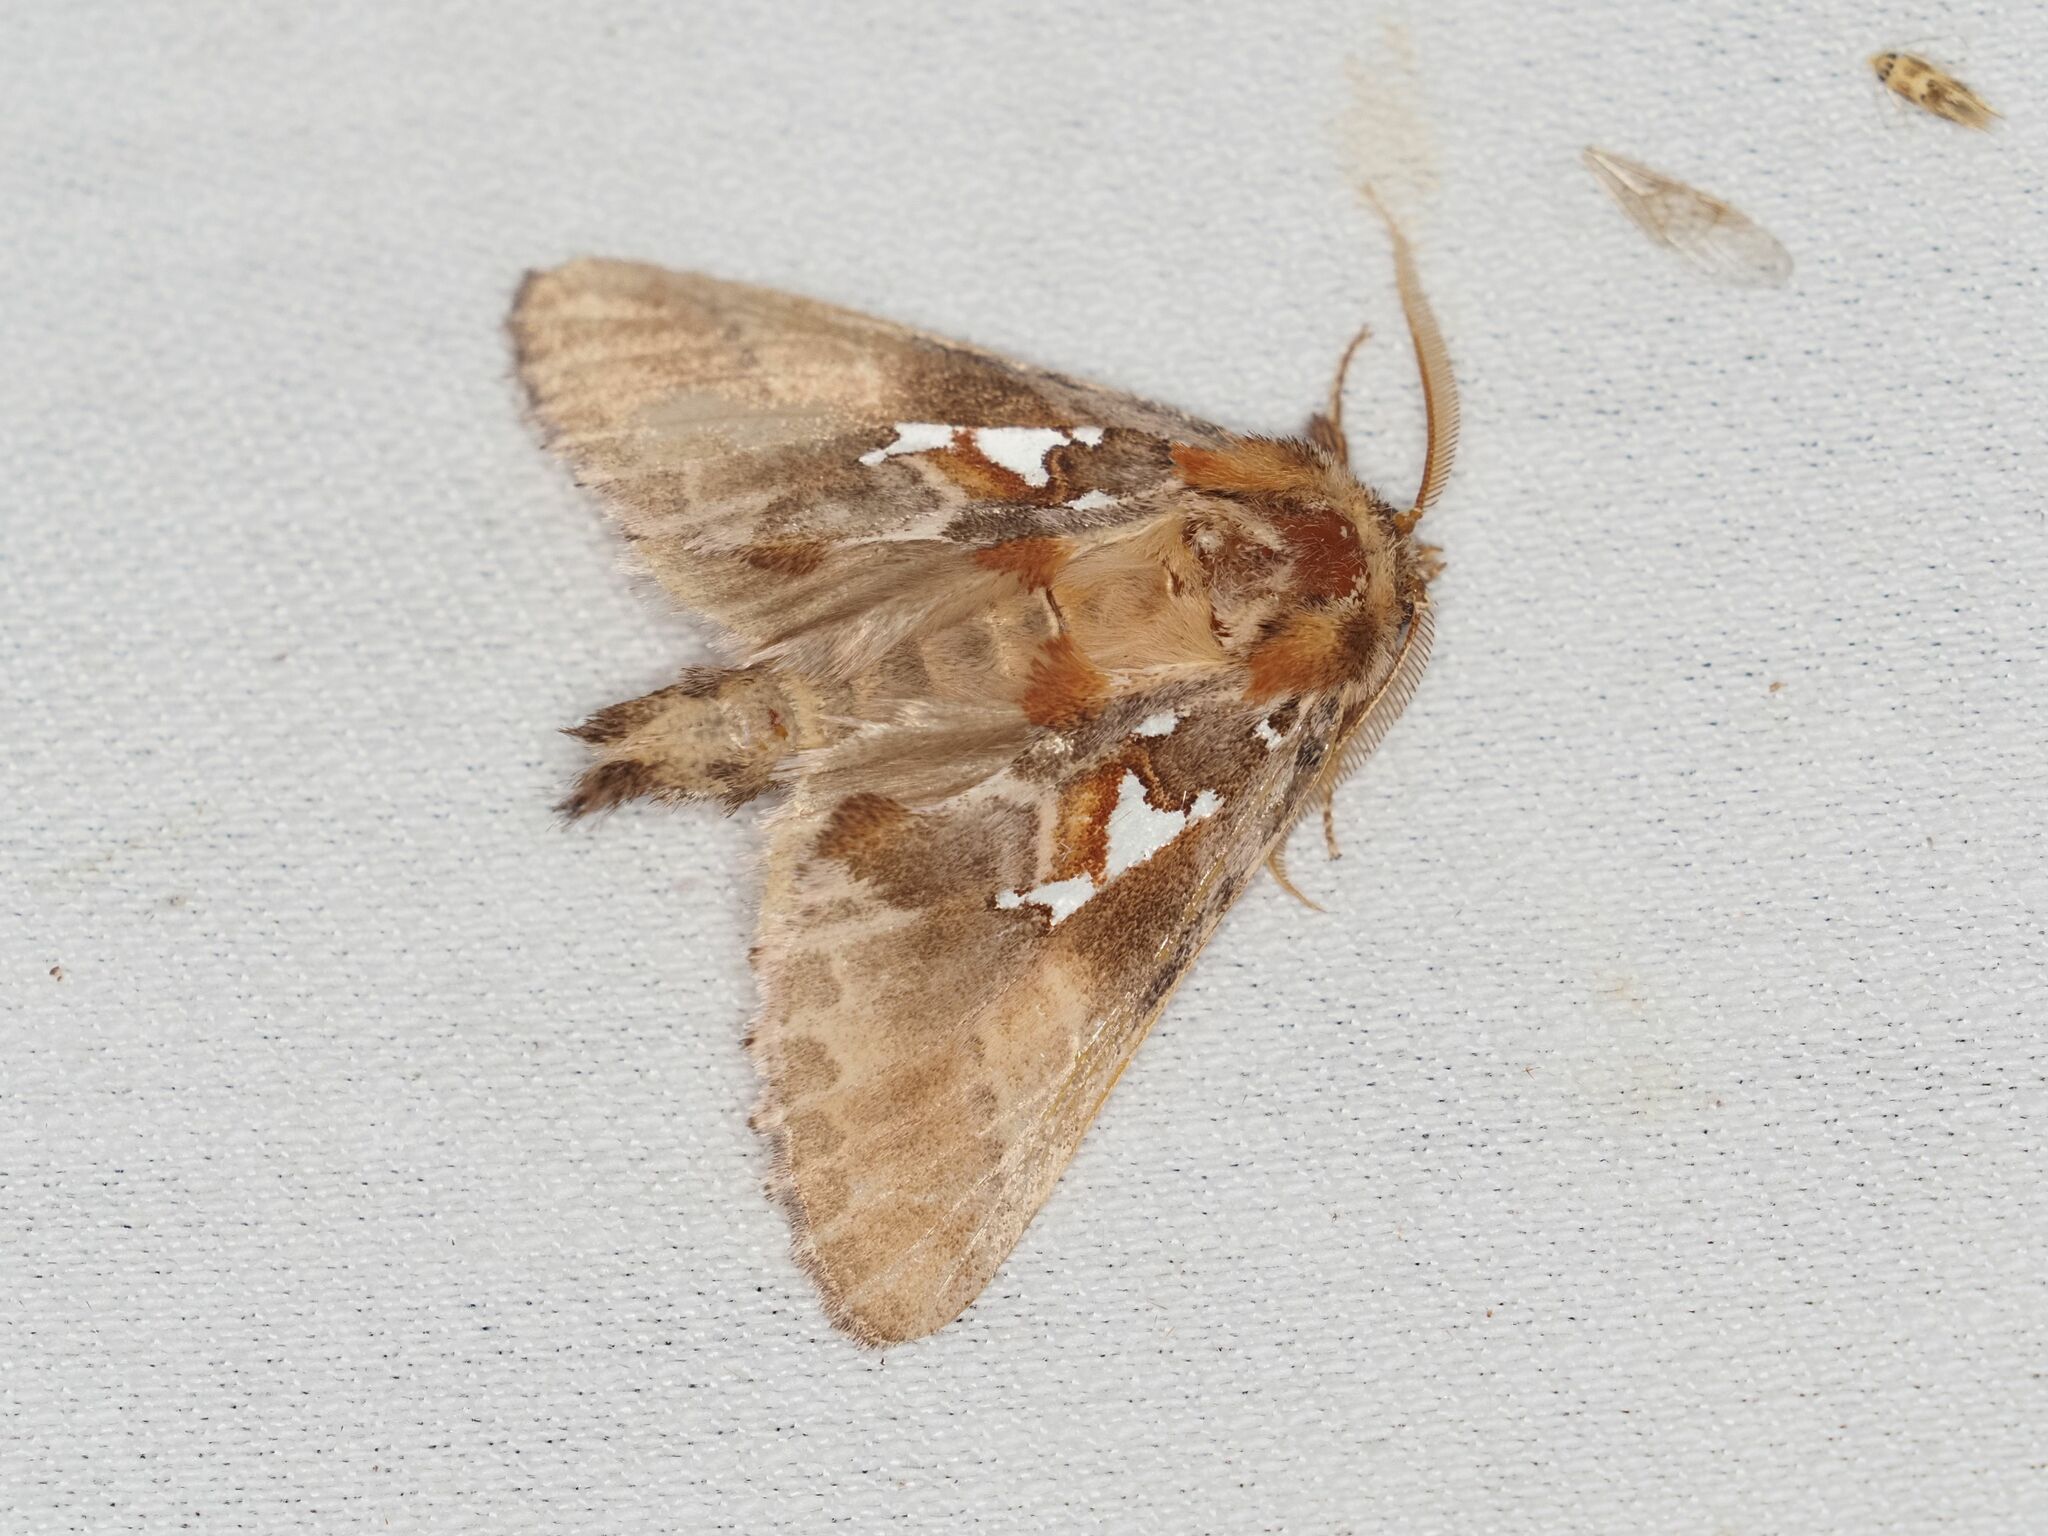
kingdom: Animalia
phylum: Arthropoda
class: Insecta
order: Lepidoptera
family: Notodontidae
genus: Spatalia
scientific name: Spatalia argentina
